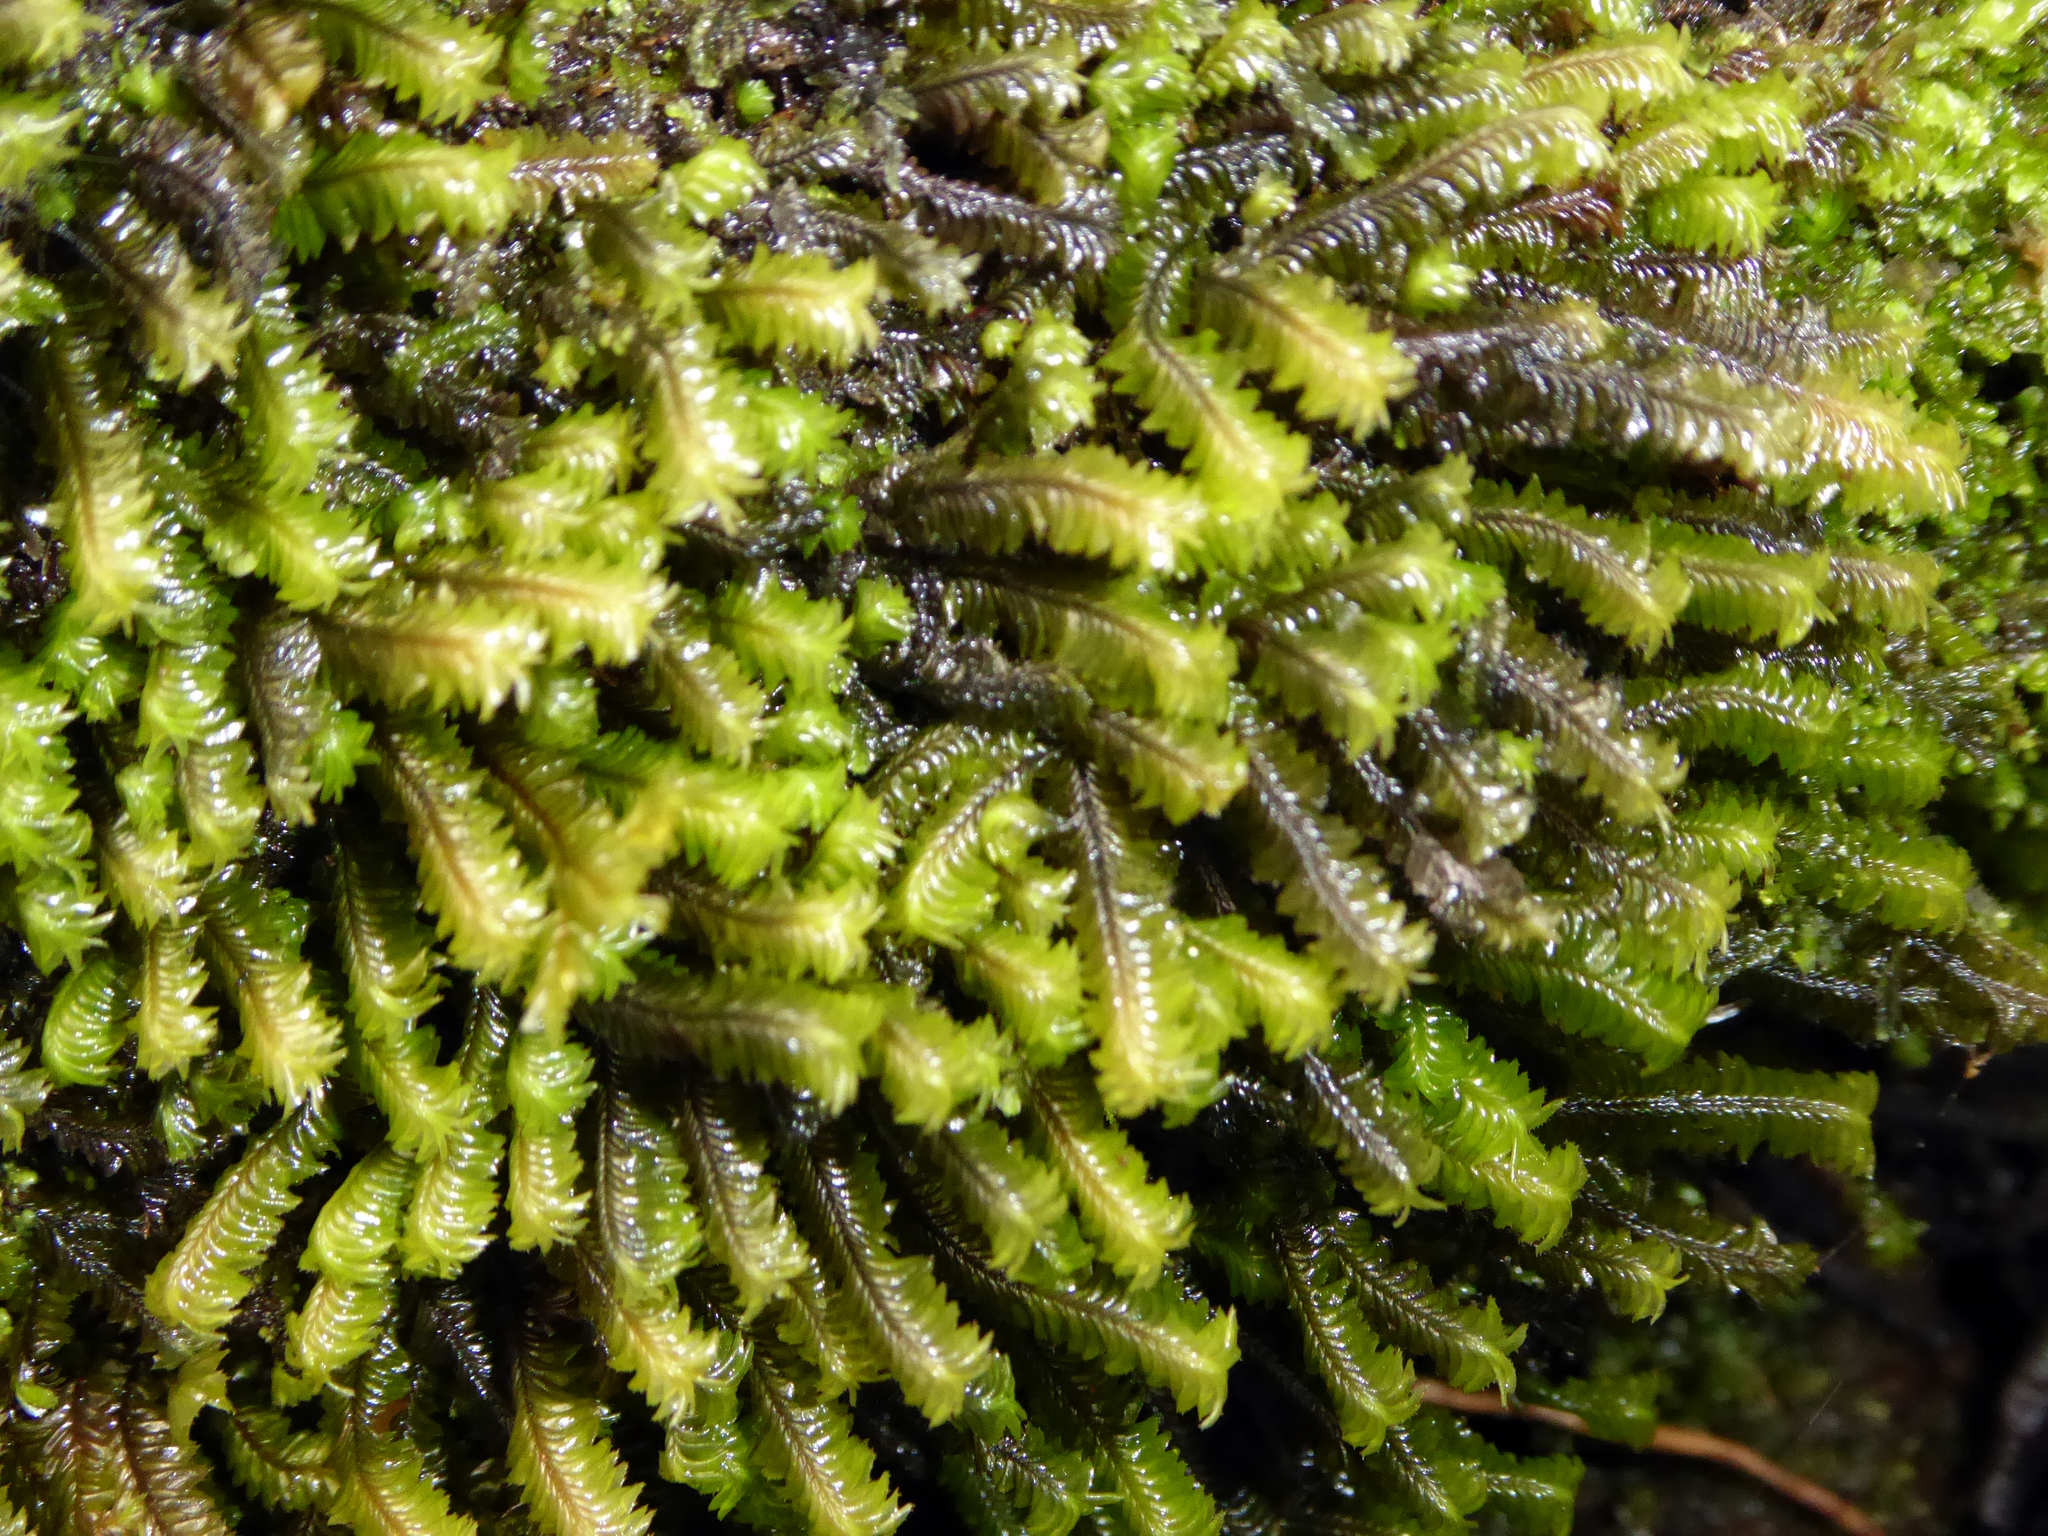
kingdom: Plantae
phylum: Marchantiophyta
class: Jungermanniopsida
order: Jungermanniales
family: Plagiochilaceae
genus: Plagiochila
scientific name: Plagiochila kirkii
